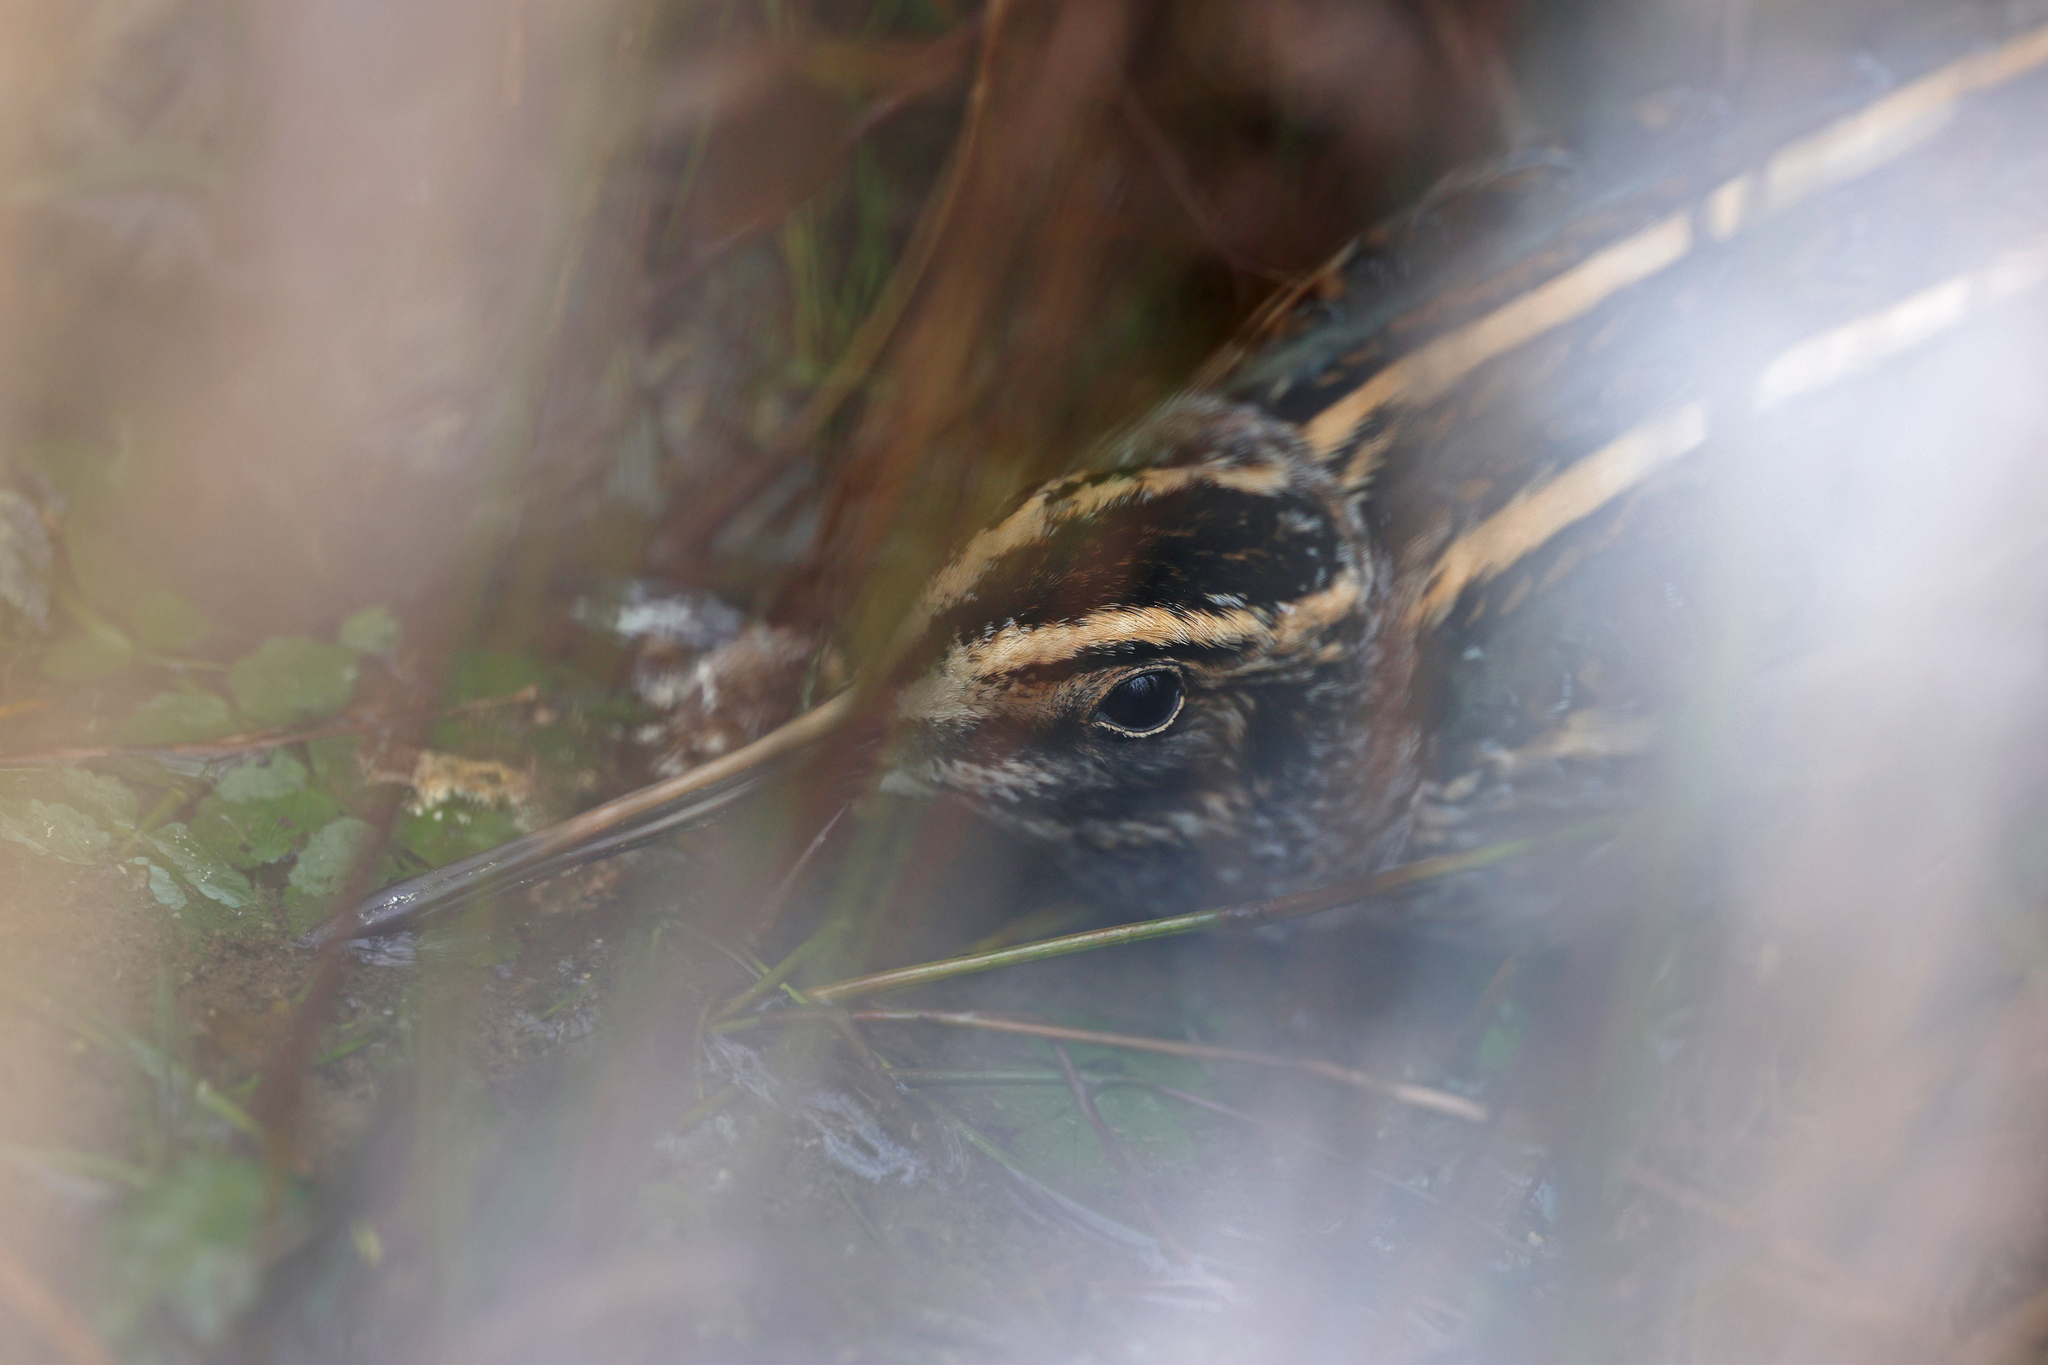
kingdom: Animalia
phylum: Chordata
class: Aves
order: Charadriiformes
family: Scolopacidae
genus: Lymnocryptes
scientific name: Lymnocryptes minimus
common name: Jack snipe
